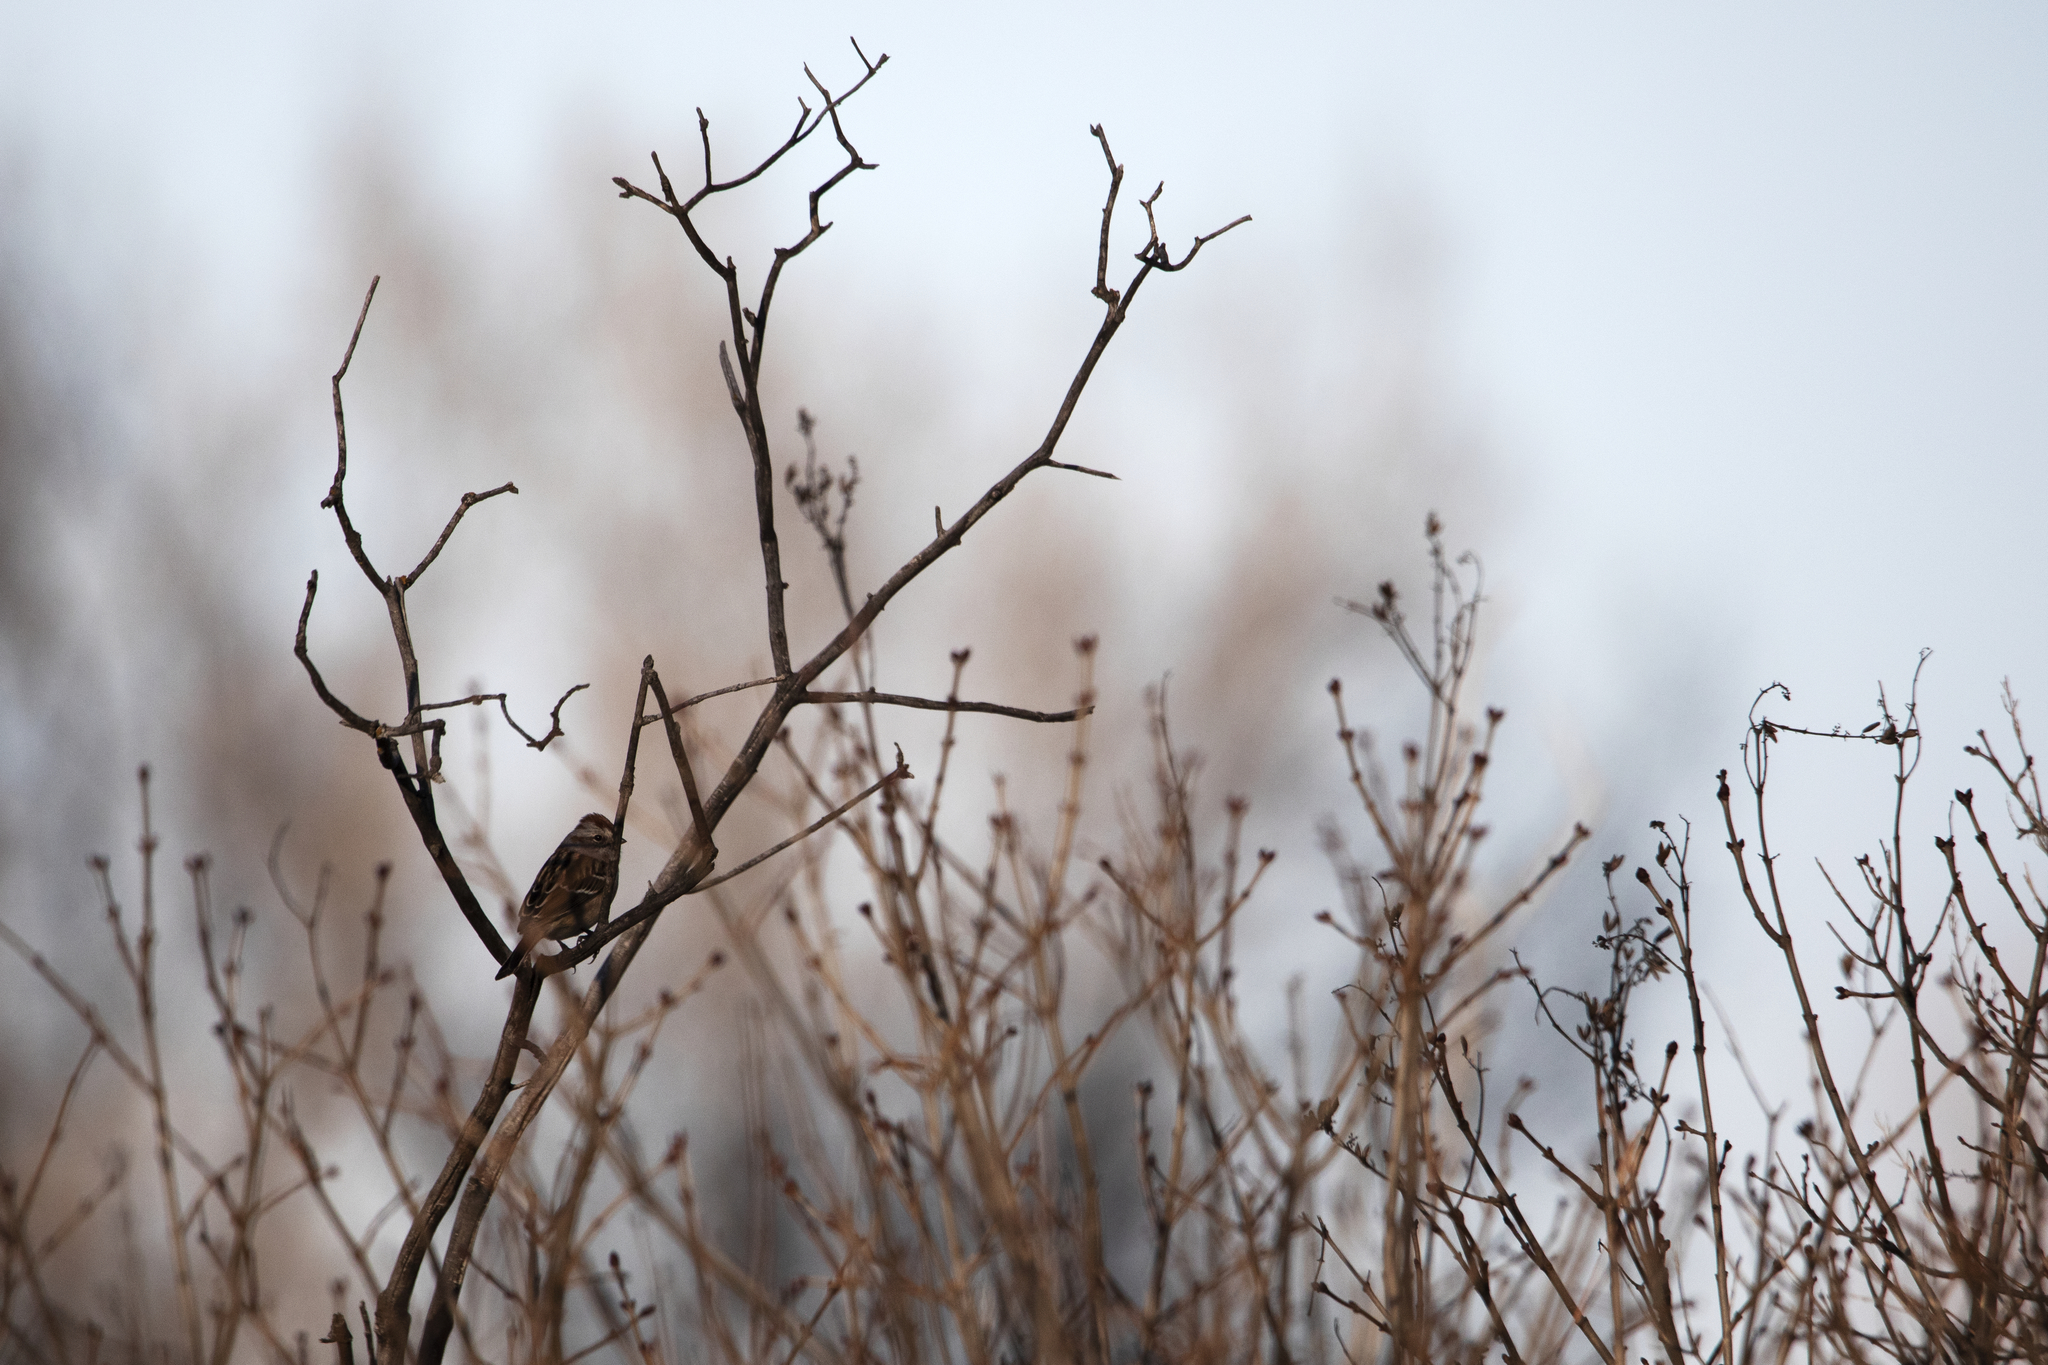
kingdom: Animalia
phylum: Chordata
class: Aves
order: Passeriformes
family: Passerellidae
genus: Spizelloides
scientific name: Spizelloides arborea
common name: American tree sparrow
